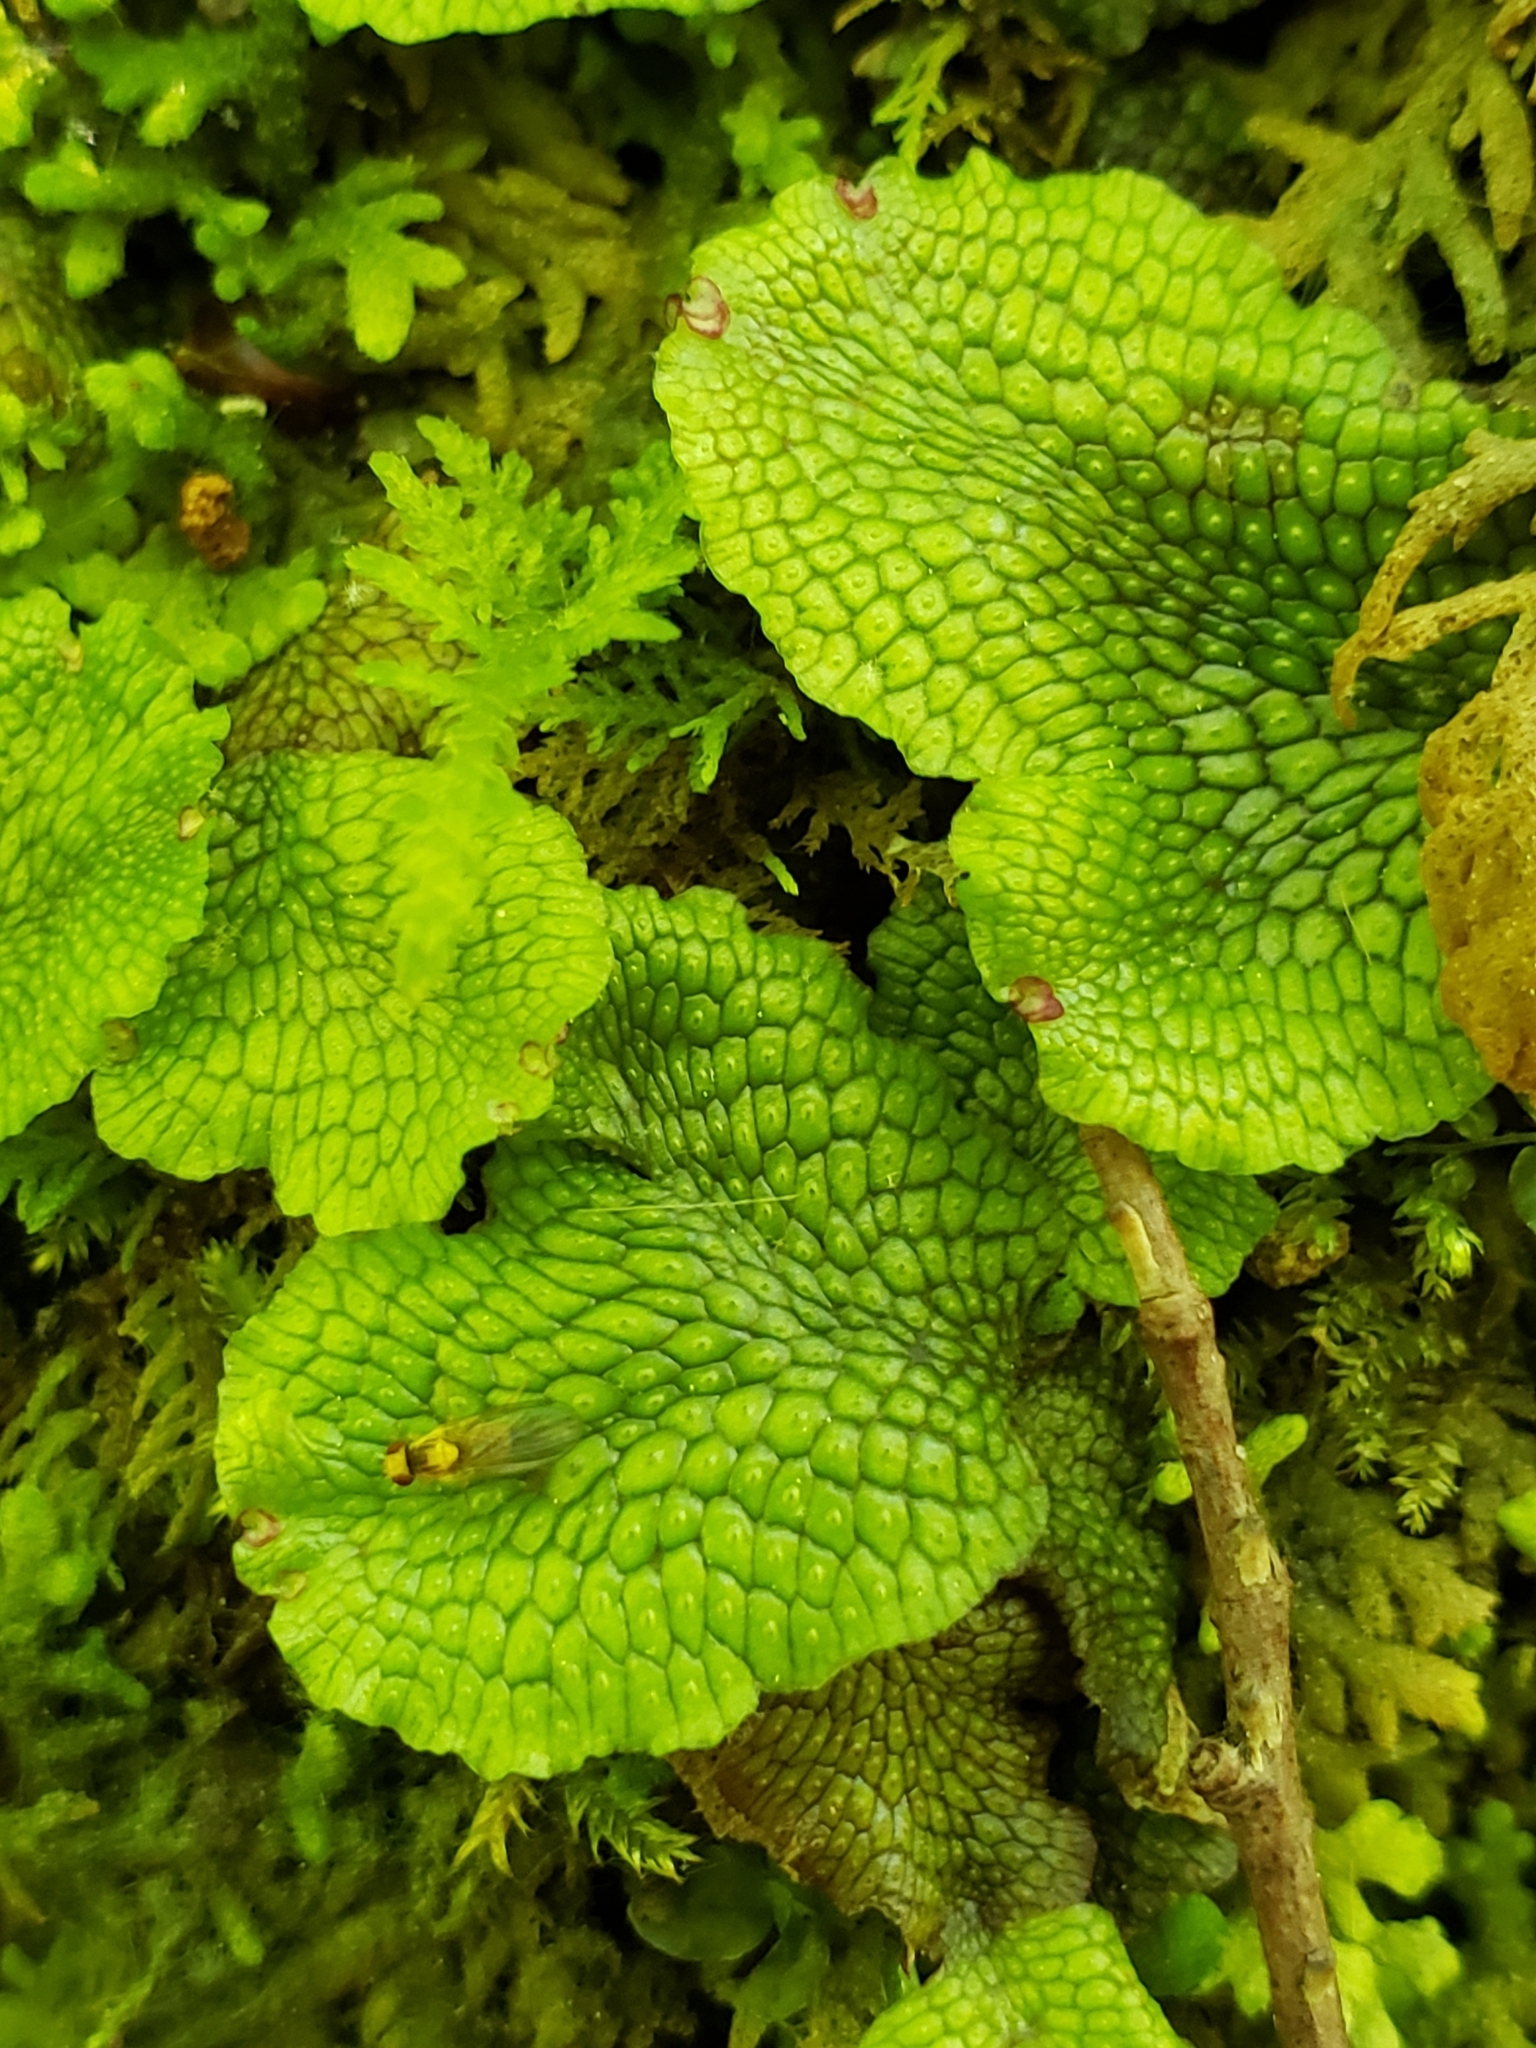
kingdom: Plantae
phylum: Marchantiophyta
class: Marchantiopsida
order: Marchantiales
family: Conocephalaceae
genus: Conocephalum
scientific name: Conocephalum salebrosum
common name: Cat-tongue liverwort
